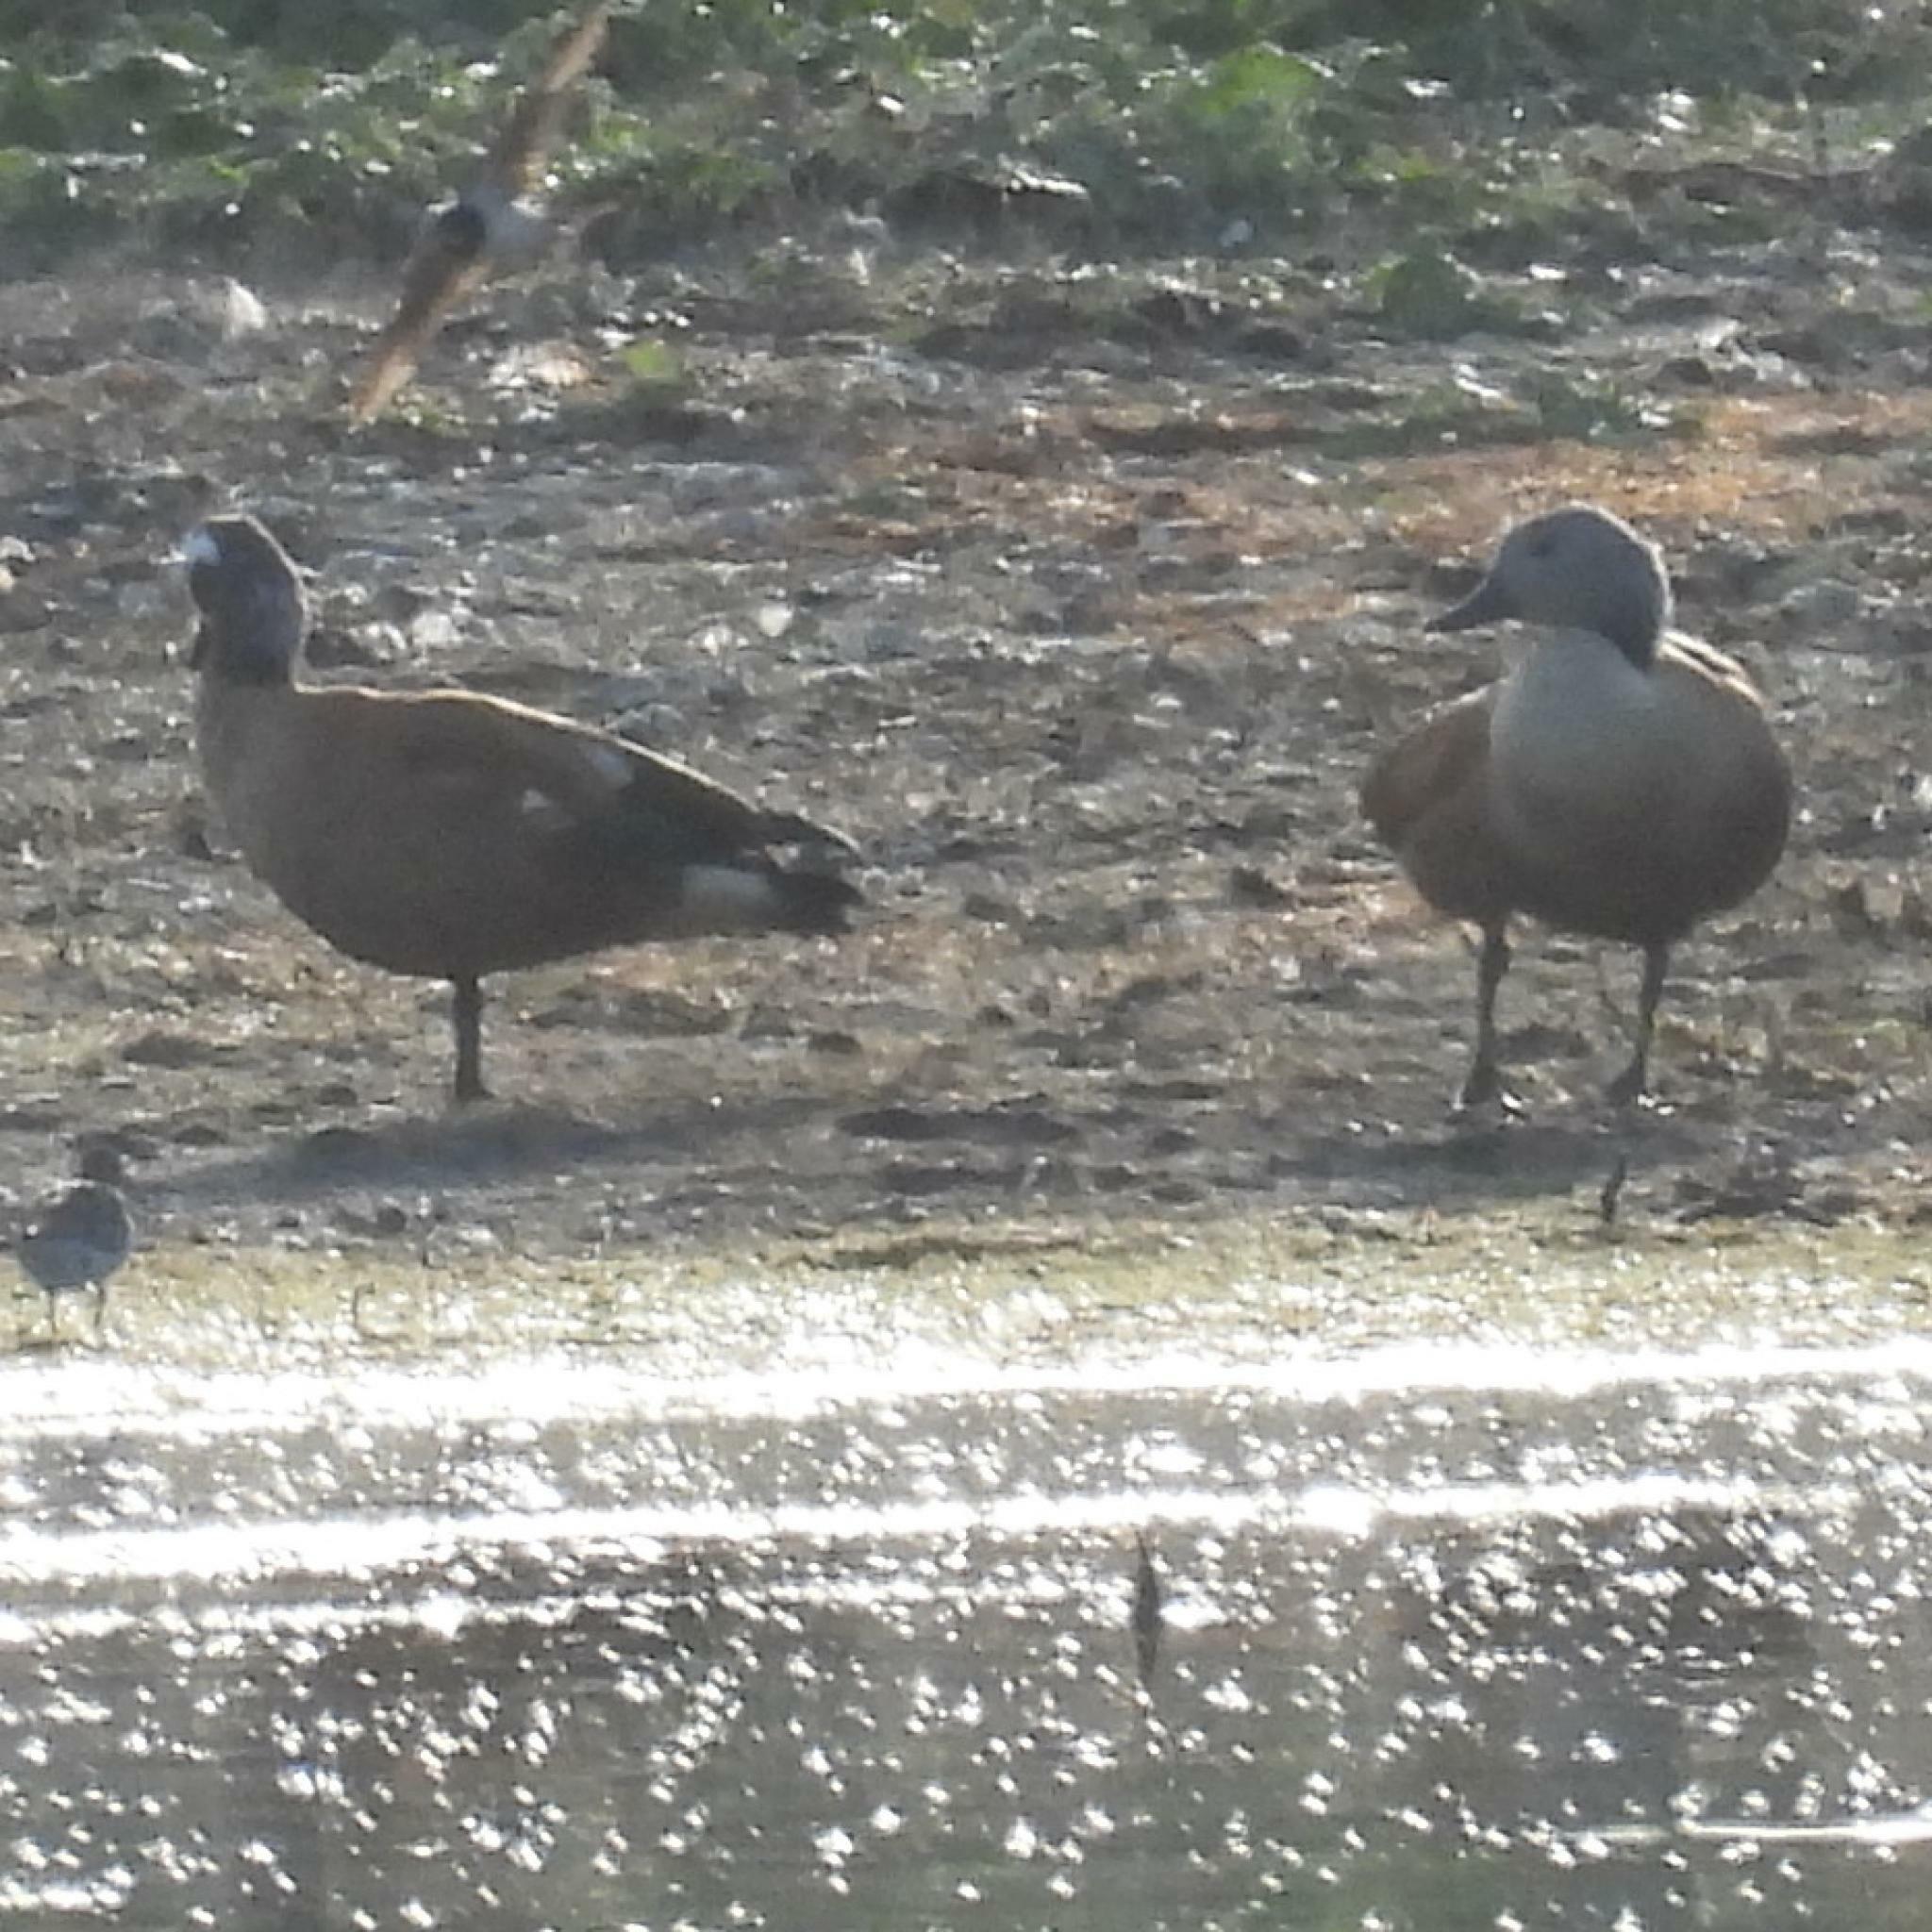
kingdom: Animalia
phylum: Chordata
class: Aves
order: Anseriformes
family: Anatidae
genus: Tadorna
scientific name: Tadorna cana
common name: South african shelduck
